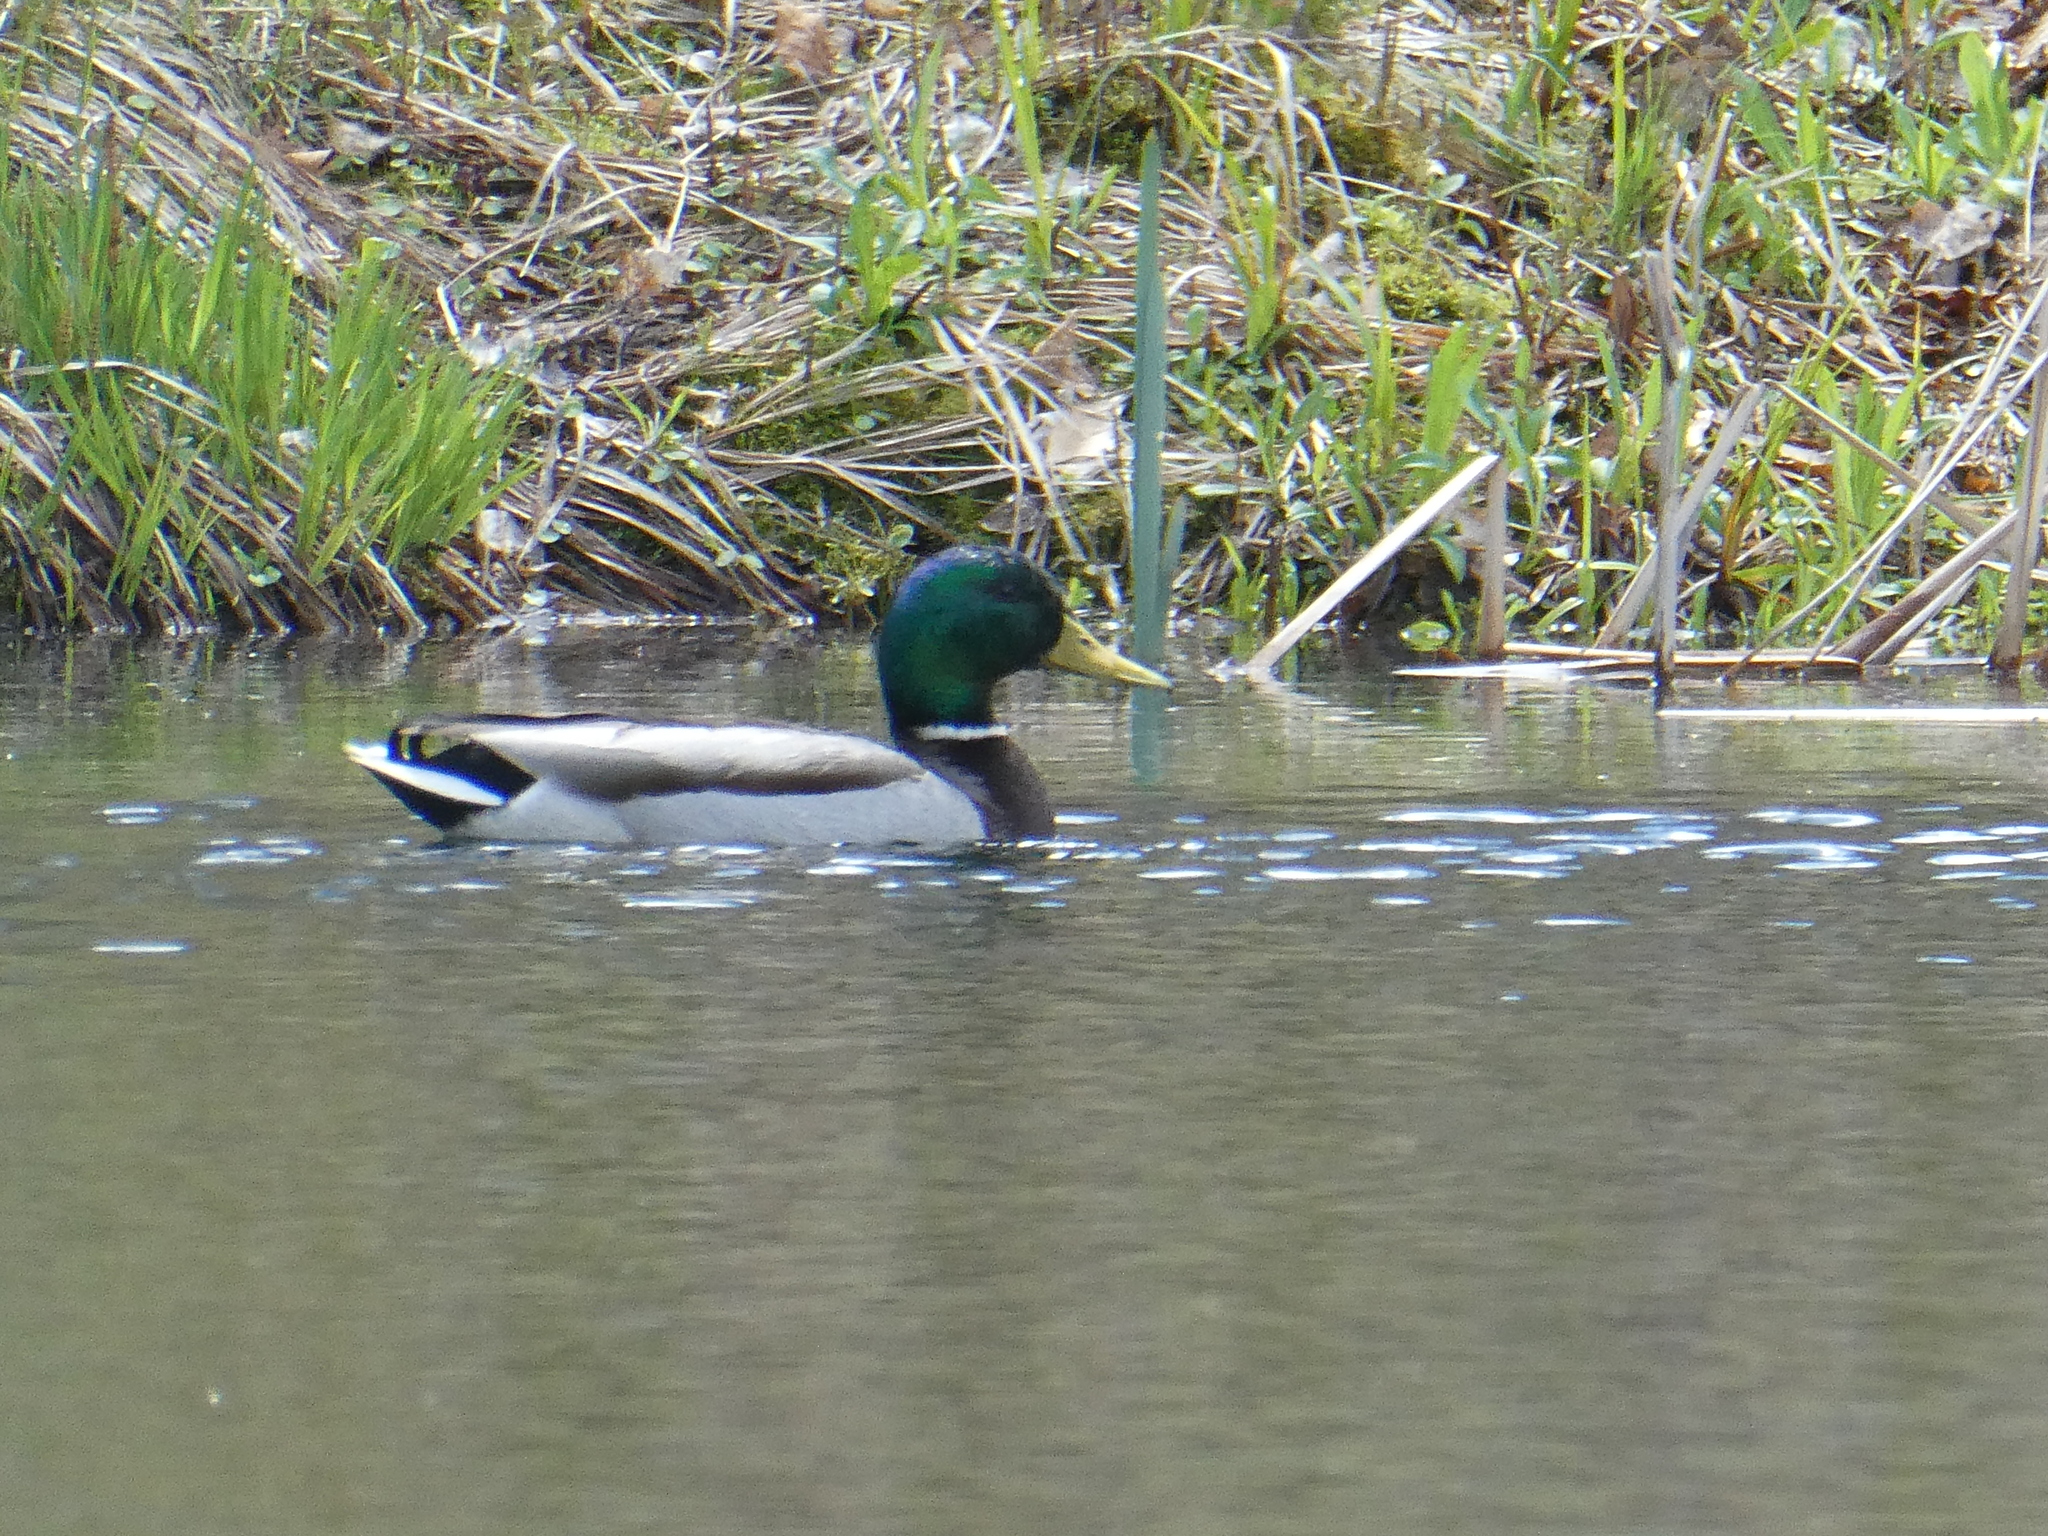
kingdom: Animalia
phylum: Chordata
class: Aves
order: Anseriformes
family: Anatidae
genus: Anas
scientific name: Anas platyrhynchos
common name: Mallard
